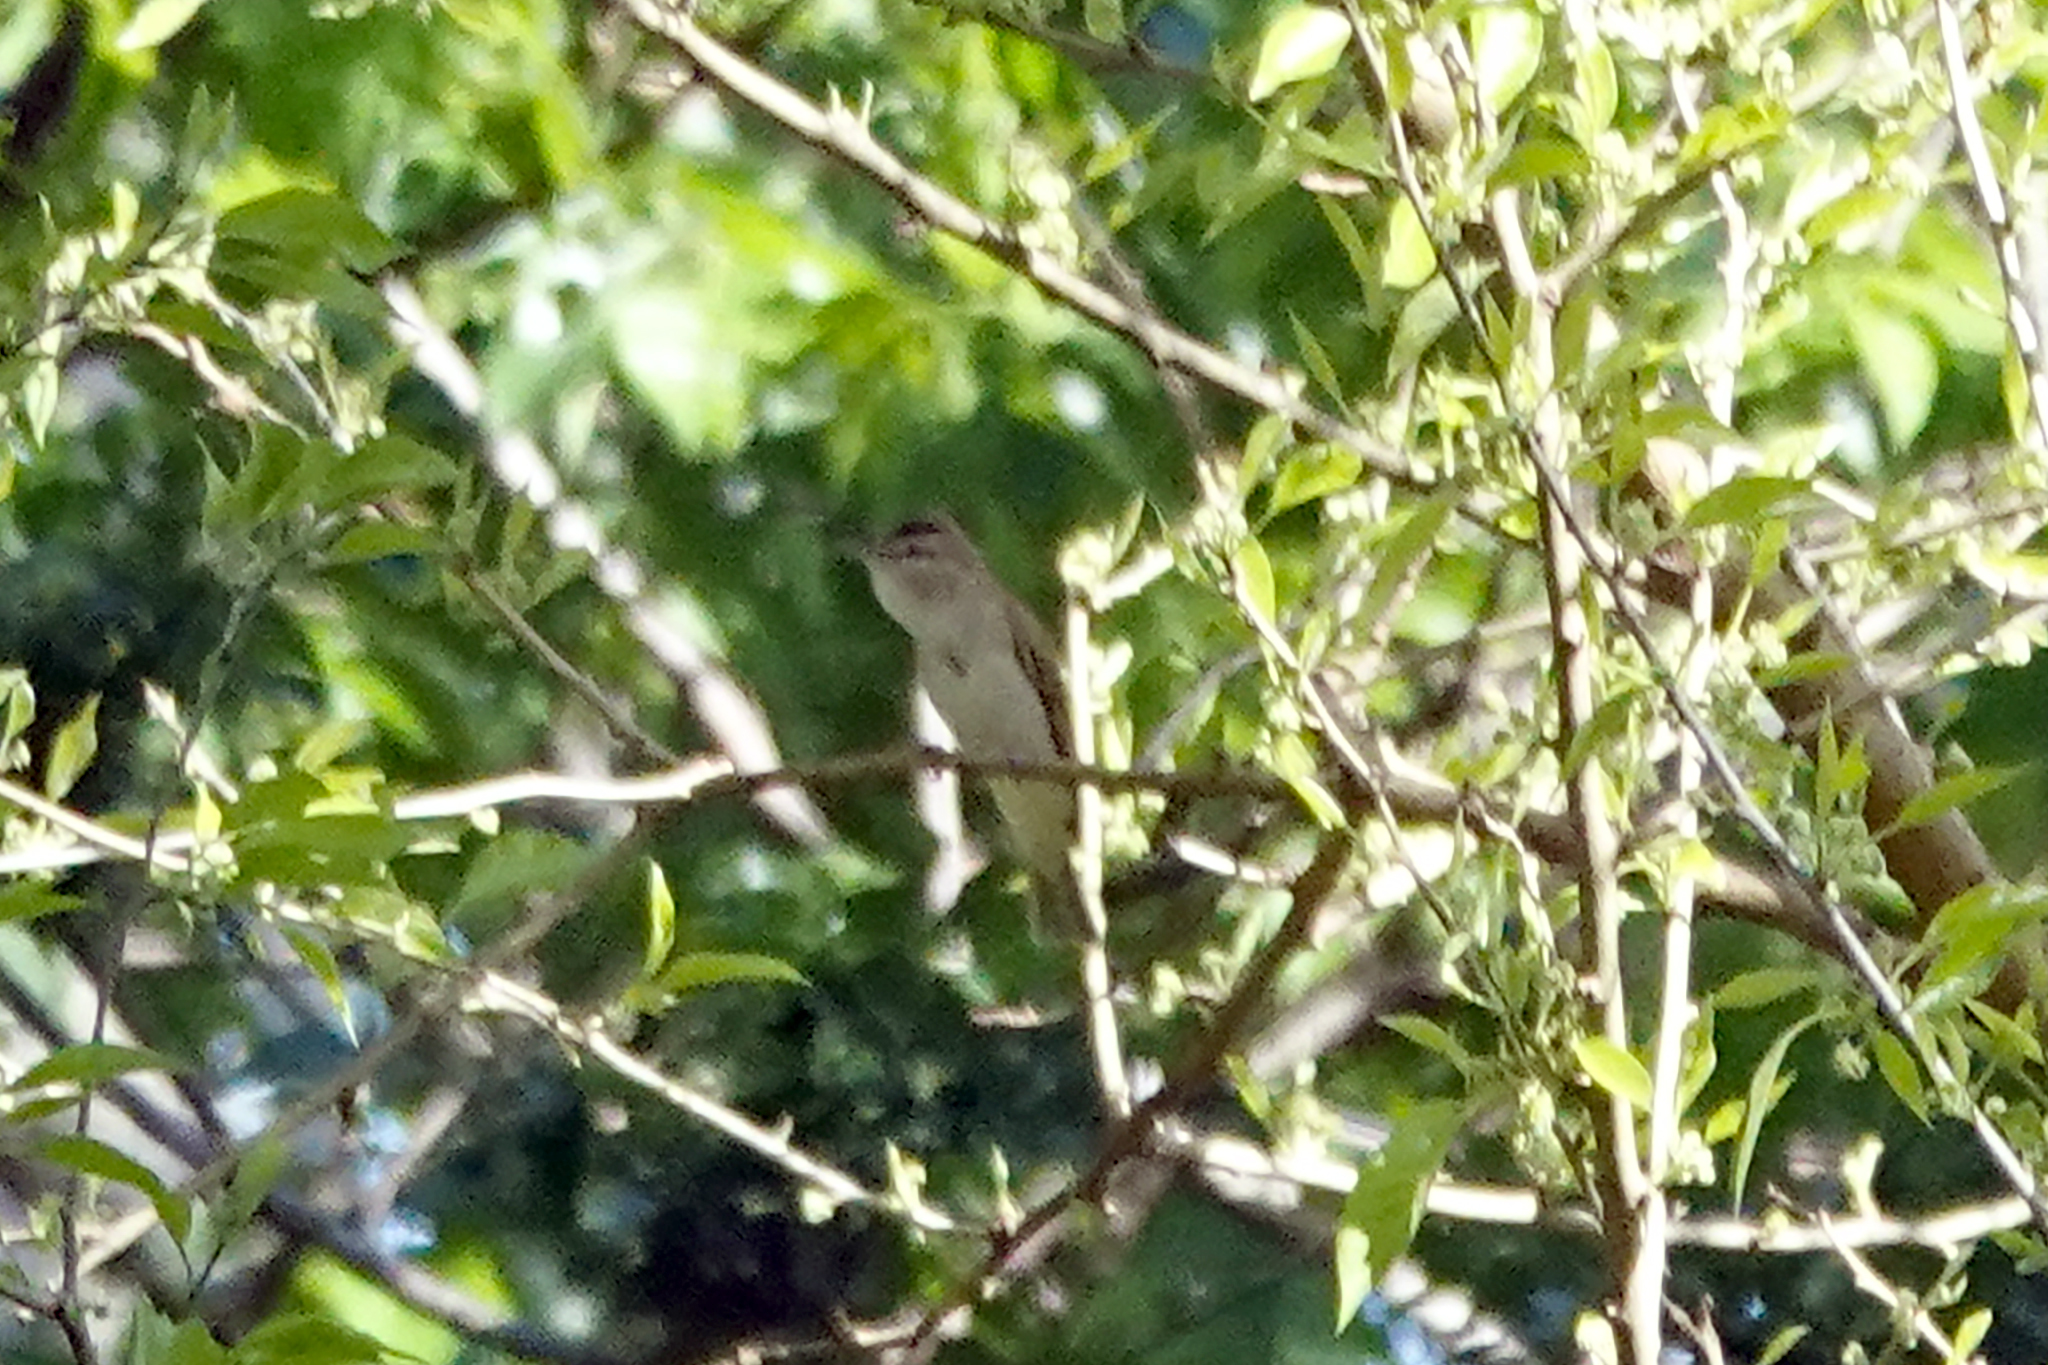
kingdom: Animalia
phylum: Chordata
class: Aves
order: Passeriformes
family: Vireonidae
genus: Vireo
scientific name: Vireo olivaceus
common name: Red-eyed vireo
